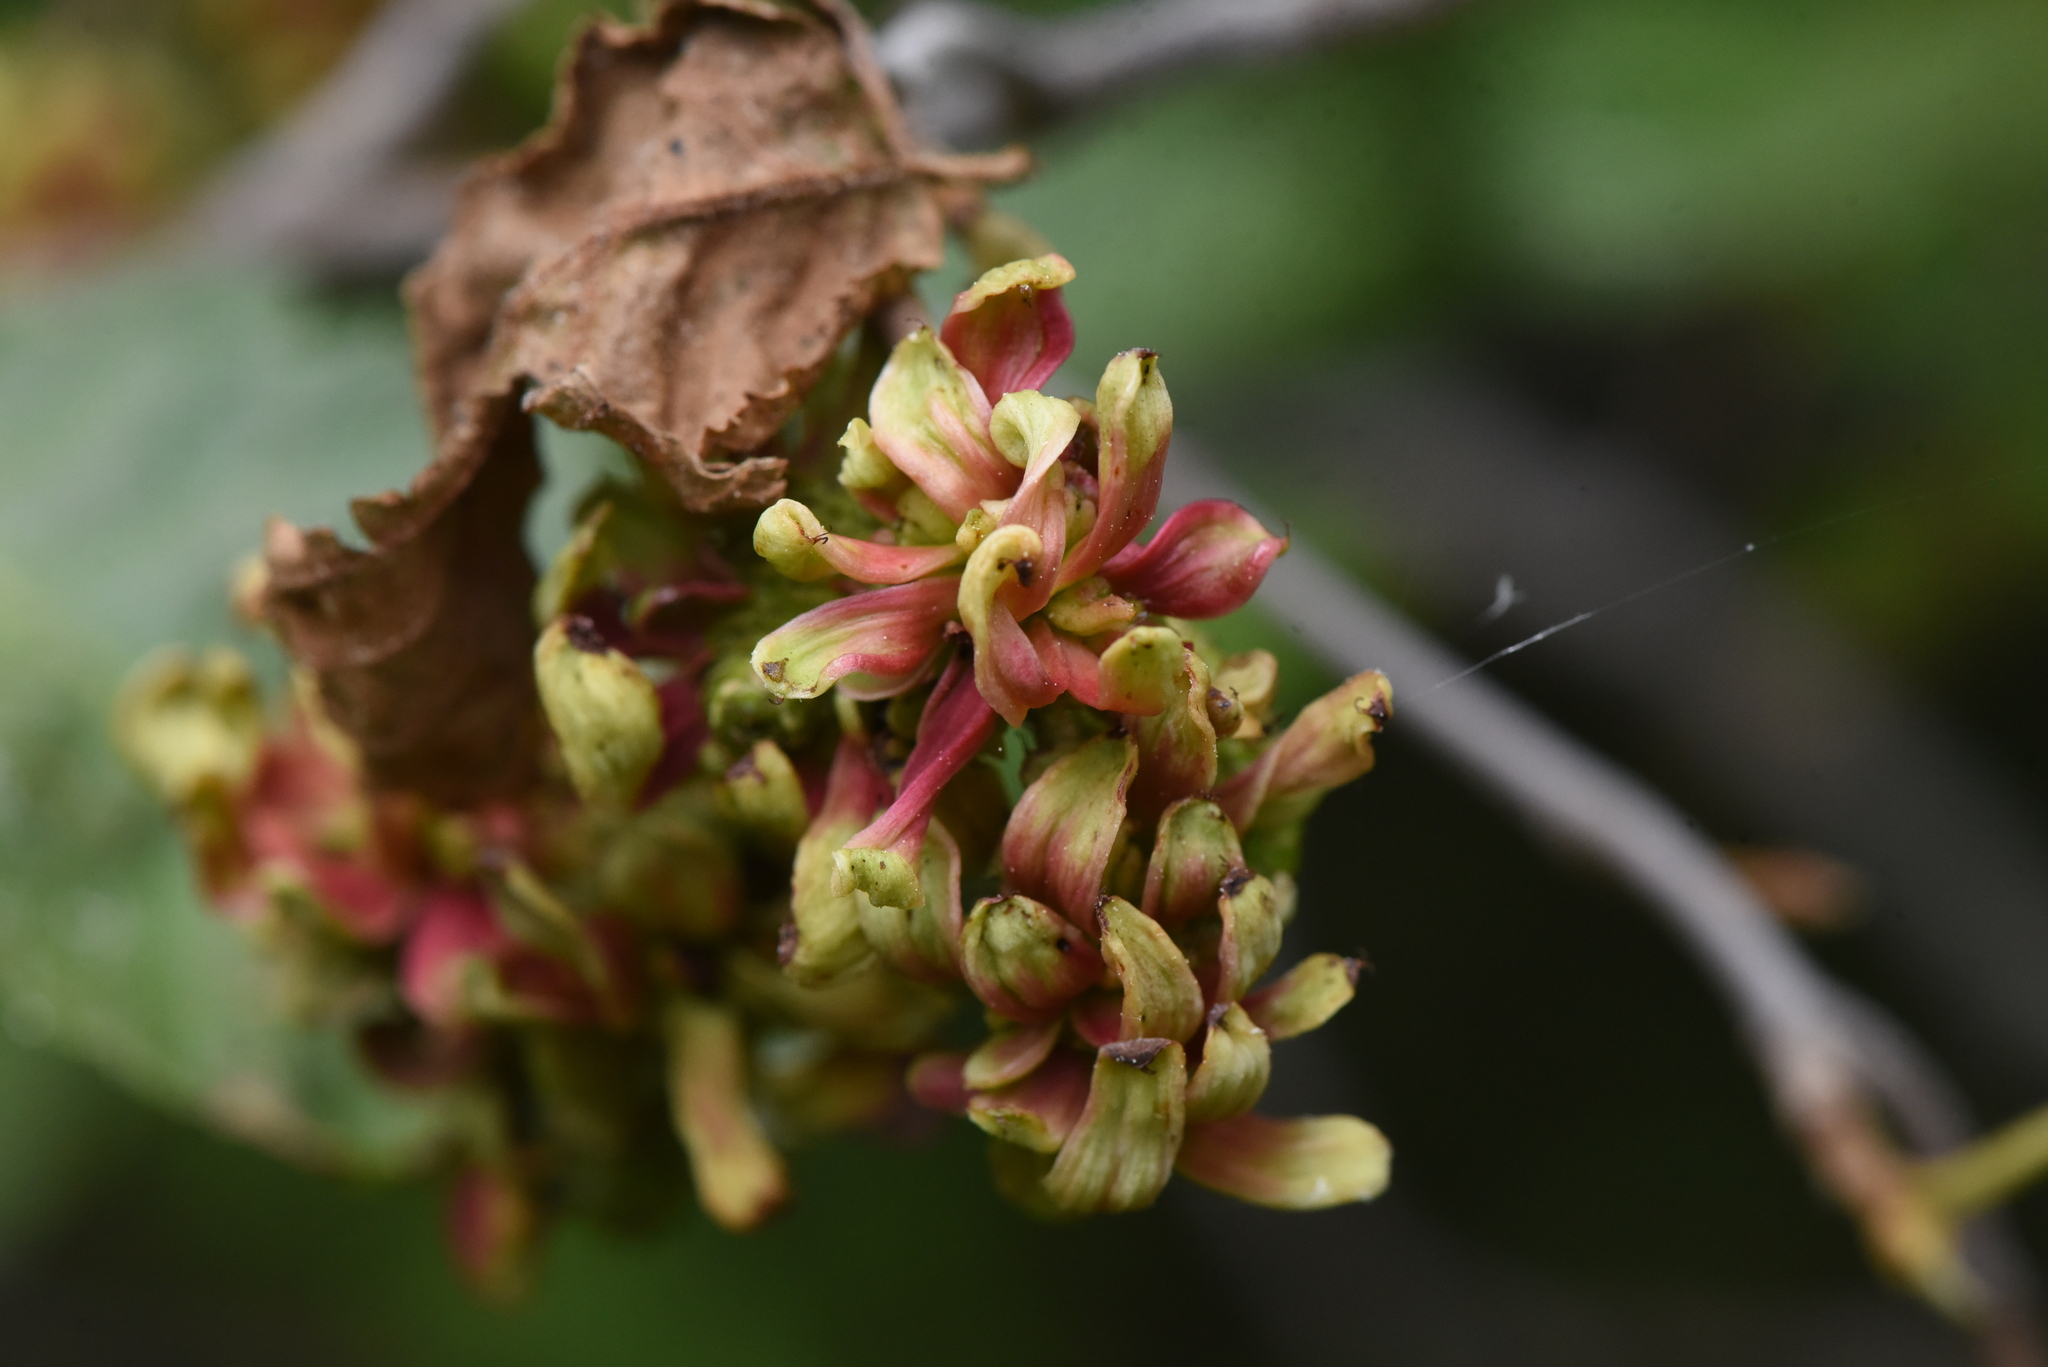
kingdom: Fungi
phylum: Ascomycota
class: Taphrinomycetes
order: Taphrinales
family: Taphrinaceae
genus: Taphrina
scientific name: Taphrina occidentalis
